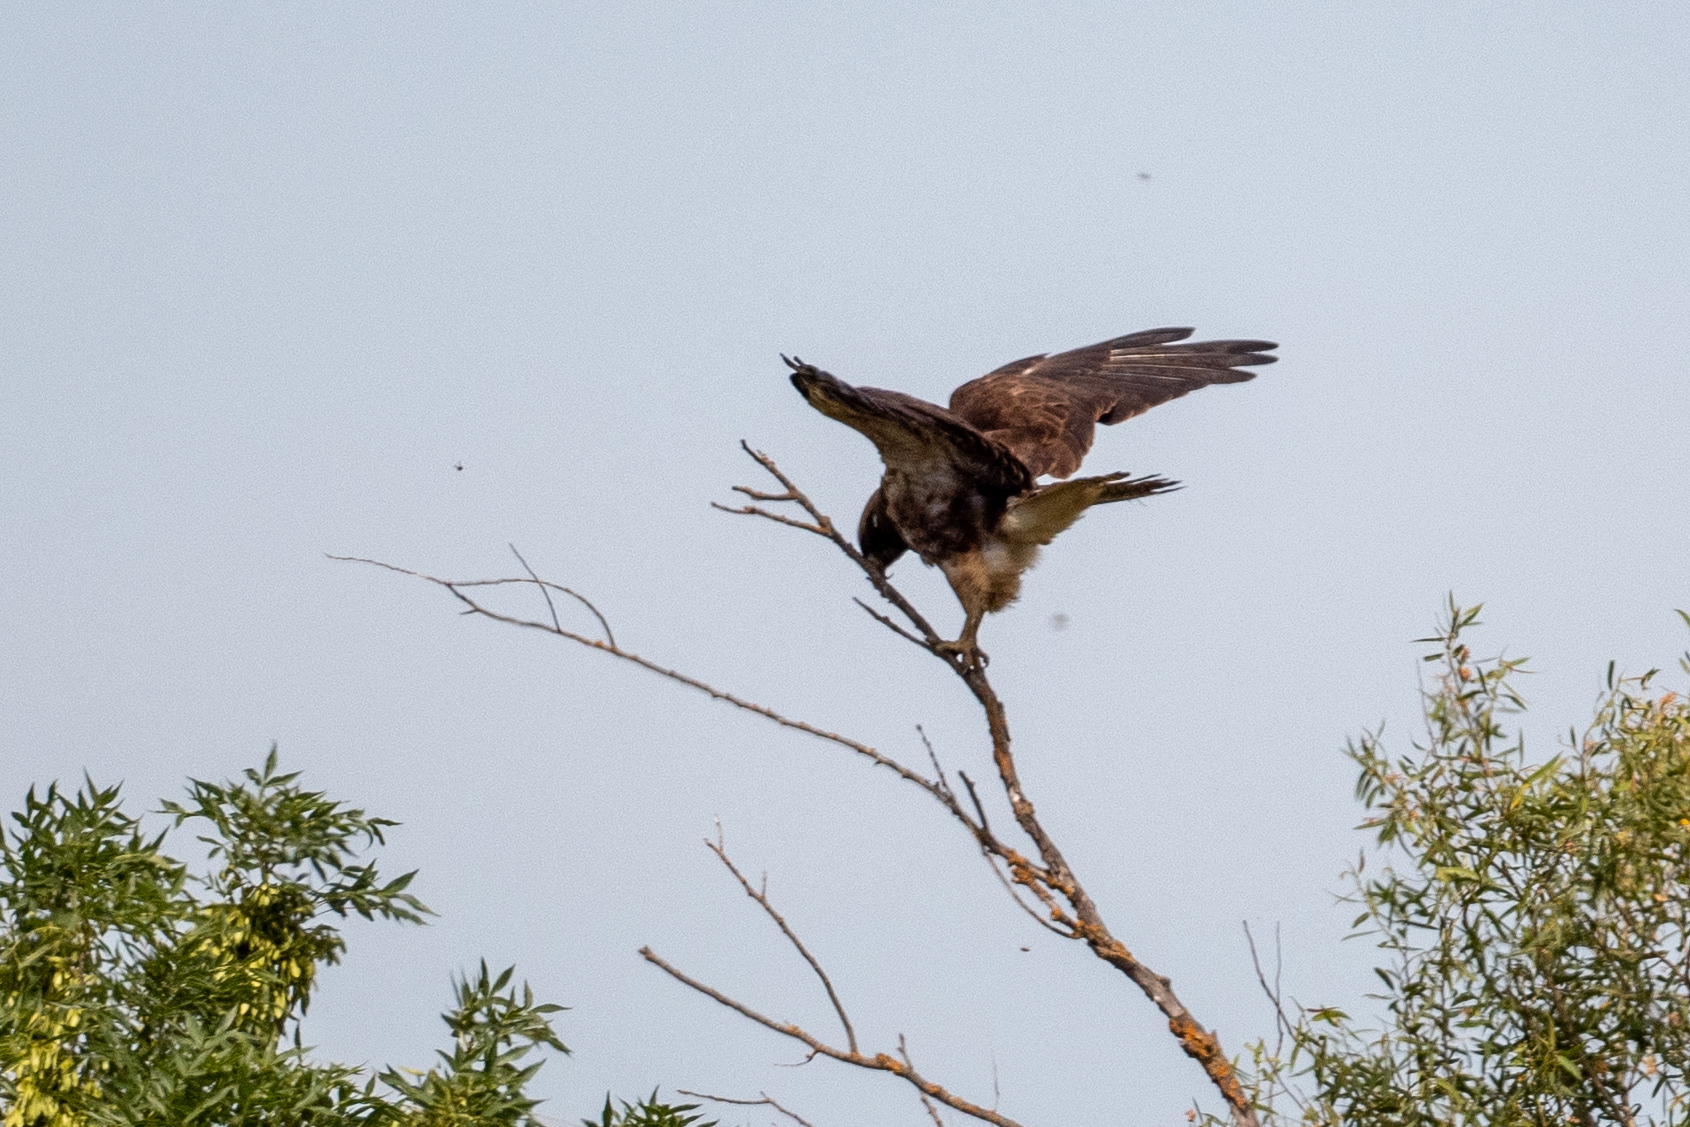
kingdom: Animalia
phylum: Chordata
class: Aves
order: Accipitriformes
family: Accipitridae
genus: Buteo
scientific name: Buteo swainsoni
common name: Swainson's hawk
